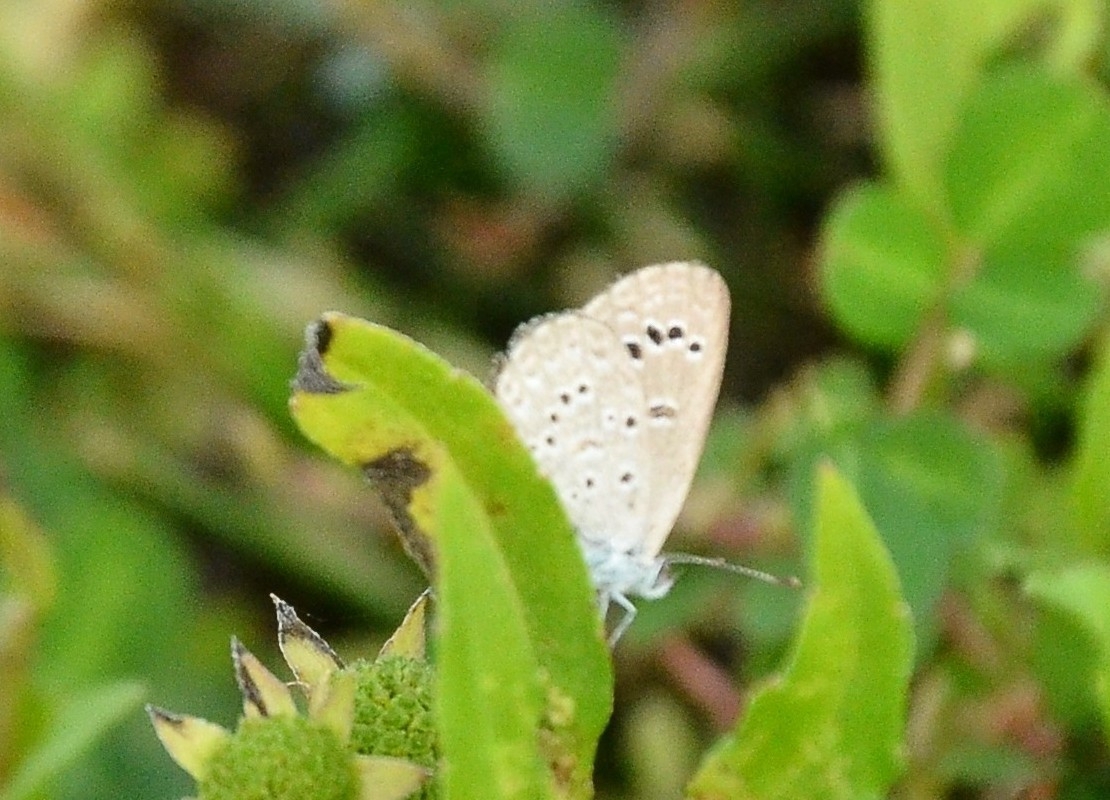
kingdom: Animalia
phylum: Arthropoda
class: Insecta
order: Lepidoptera
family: Lycaenidae
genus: Zizina
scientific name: Zizina otis
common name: Lesser grass blue
